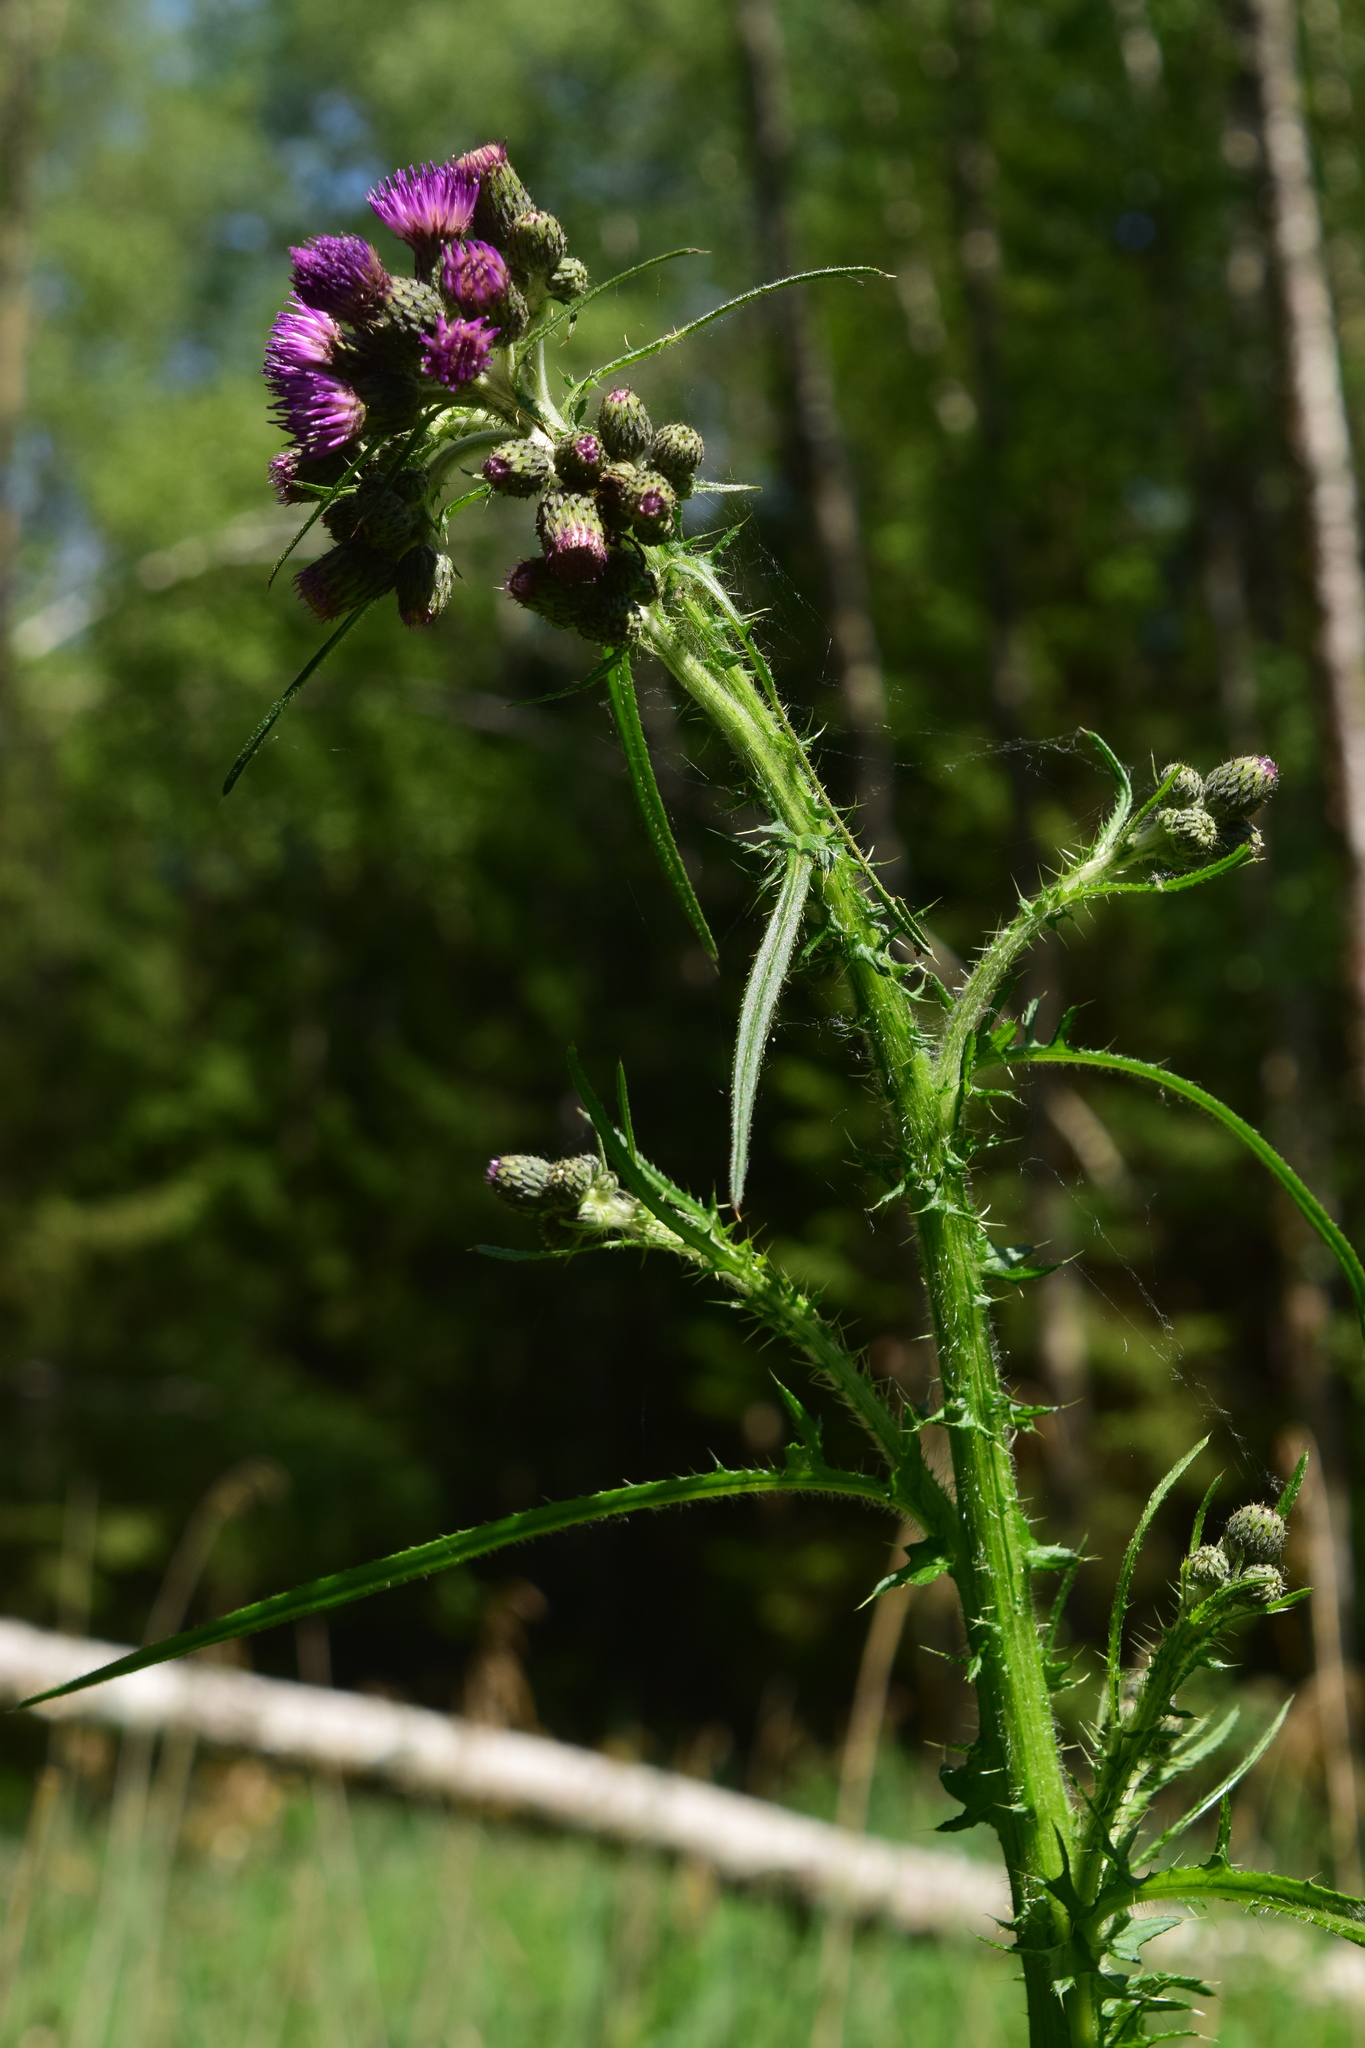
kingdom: Plantae
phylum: Tracheophyta
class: Magnoliopsida
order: Asterales
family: Asteraceae
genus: Cirsium
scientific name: Cirsium palustre
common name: Marsh thistle
